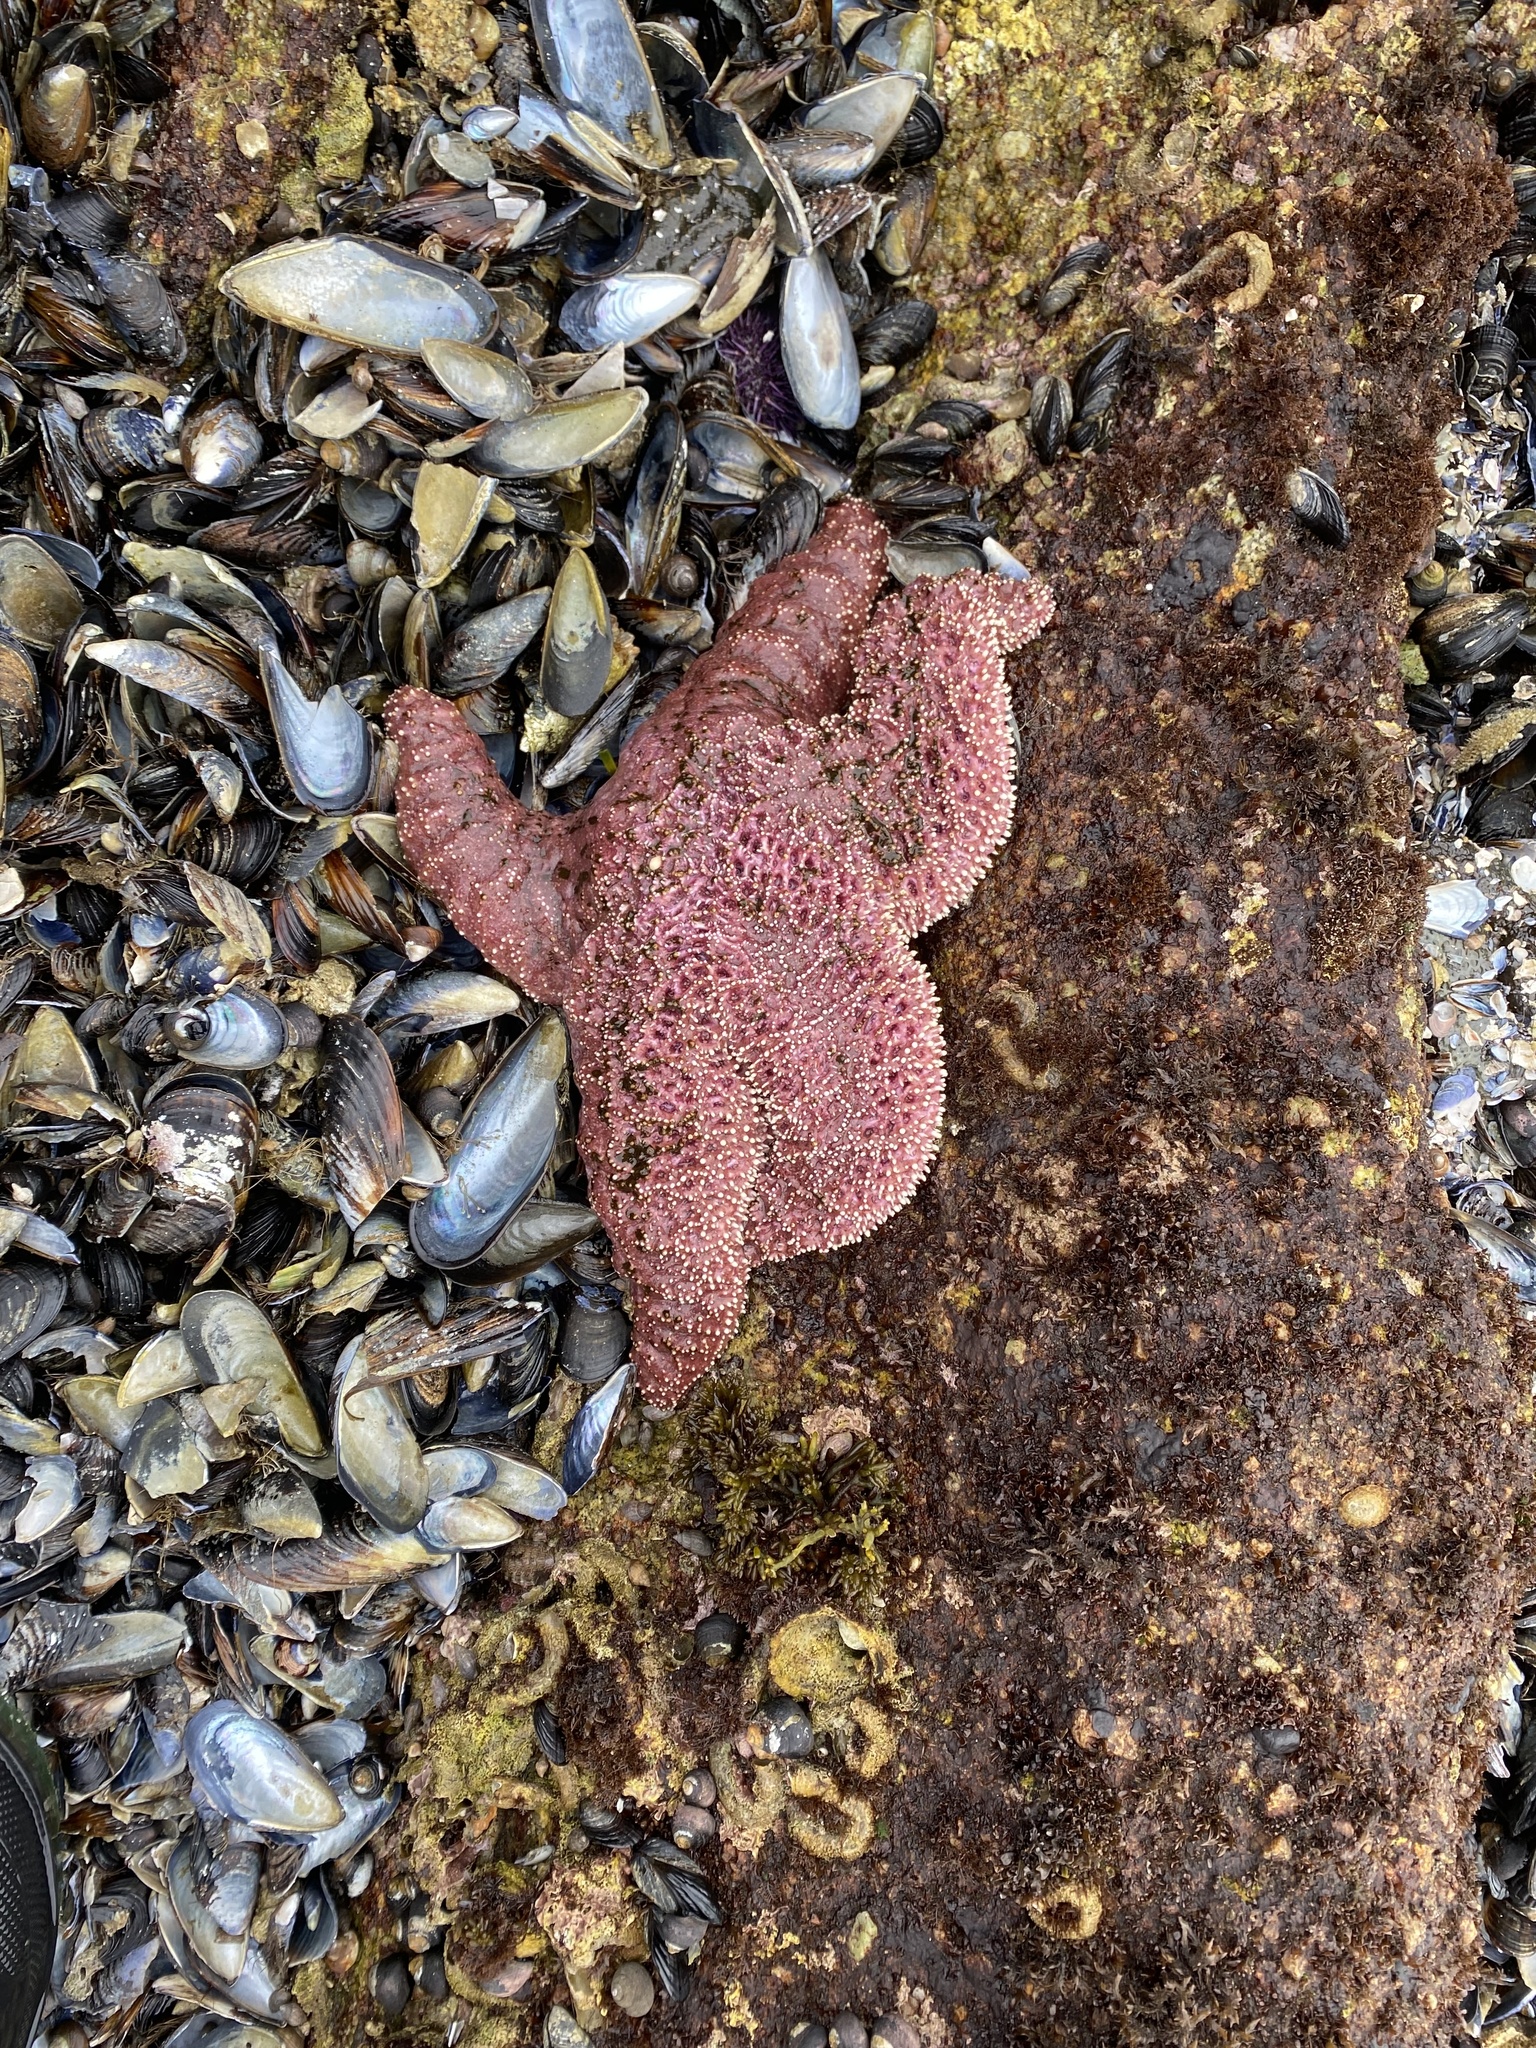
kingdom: Animalia
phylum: Echinodermata
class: Asteroidea
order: Forcipulatida
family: Asteriidae
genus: Pisaster
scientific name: Pisaster ochraceus
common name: Ochre stars
